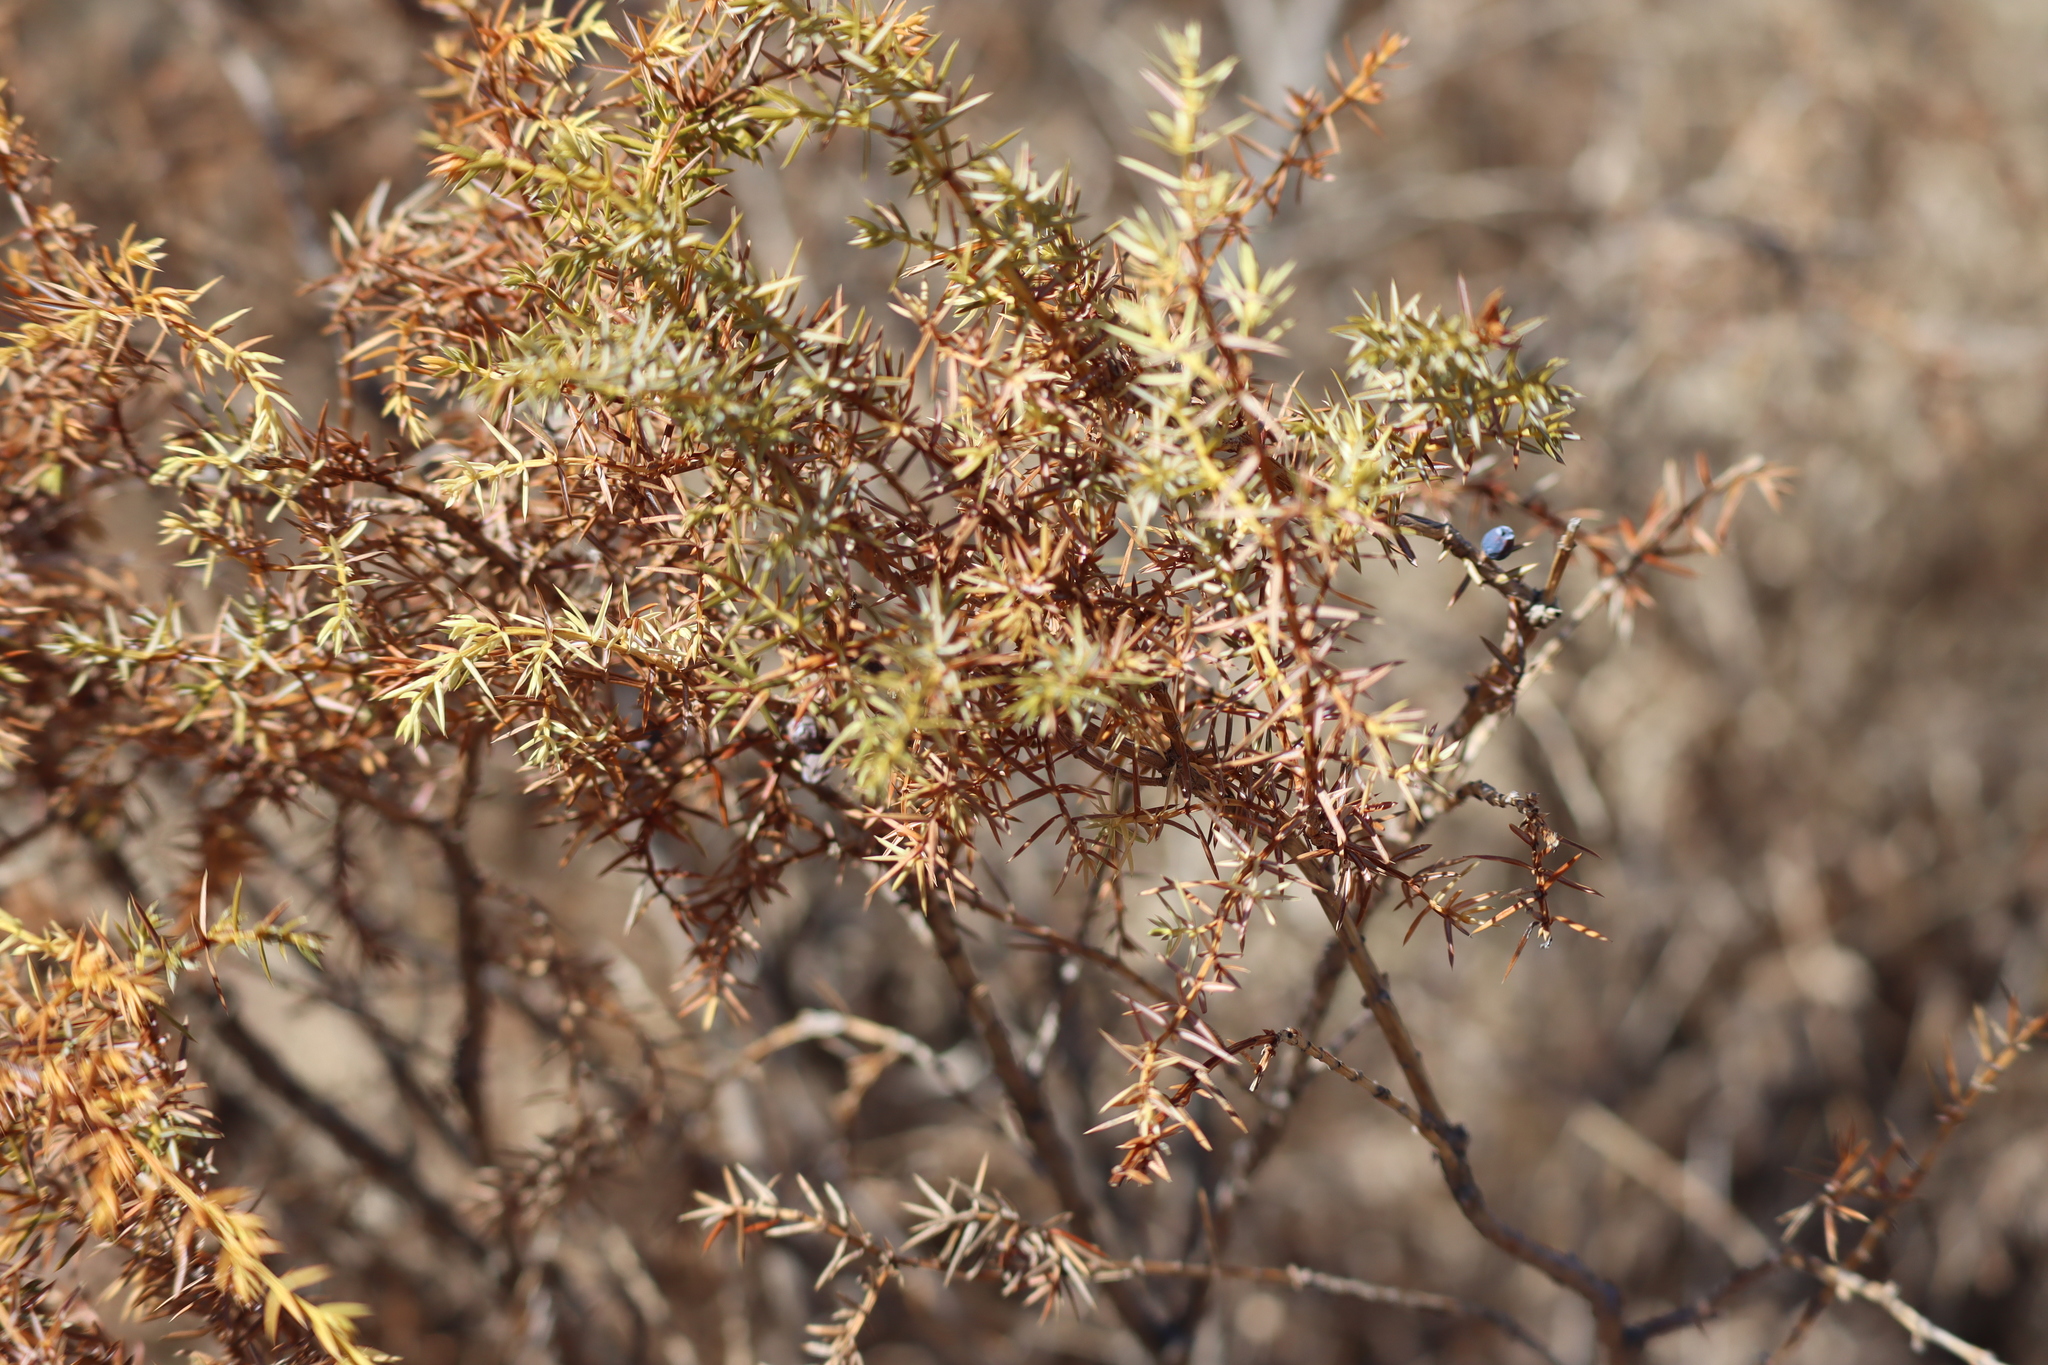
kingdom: Plantae
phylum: Tracheophyta
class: Pinopsida
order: Pinales
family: Cupressaceae
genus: Juniperus
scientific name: Juniperus communis
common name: Common juniper
